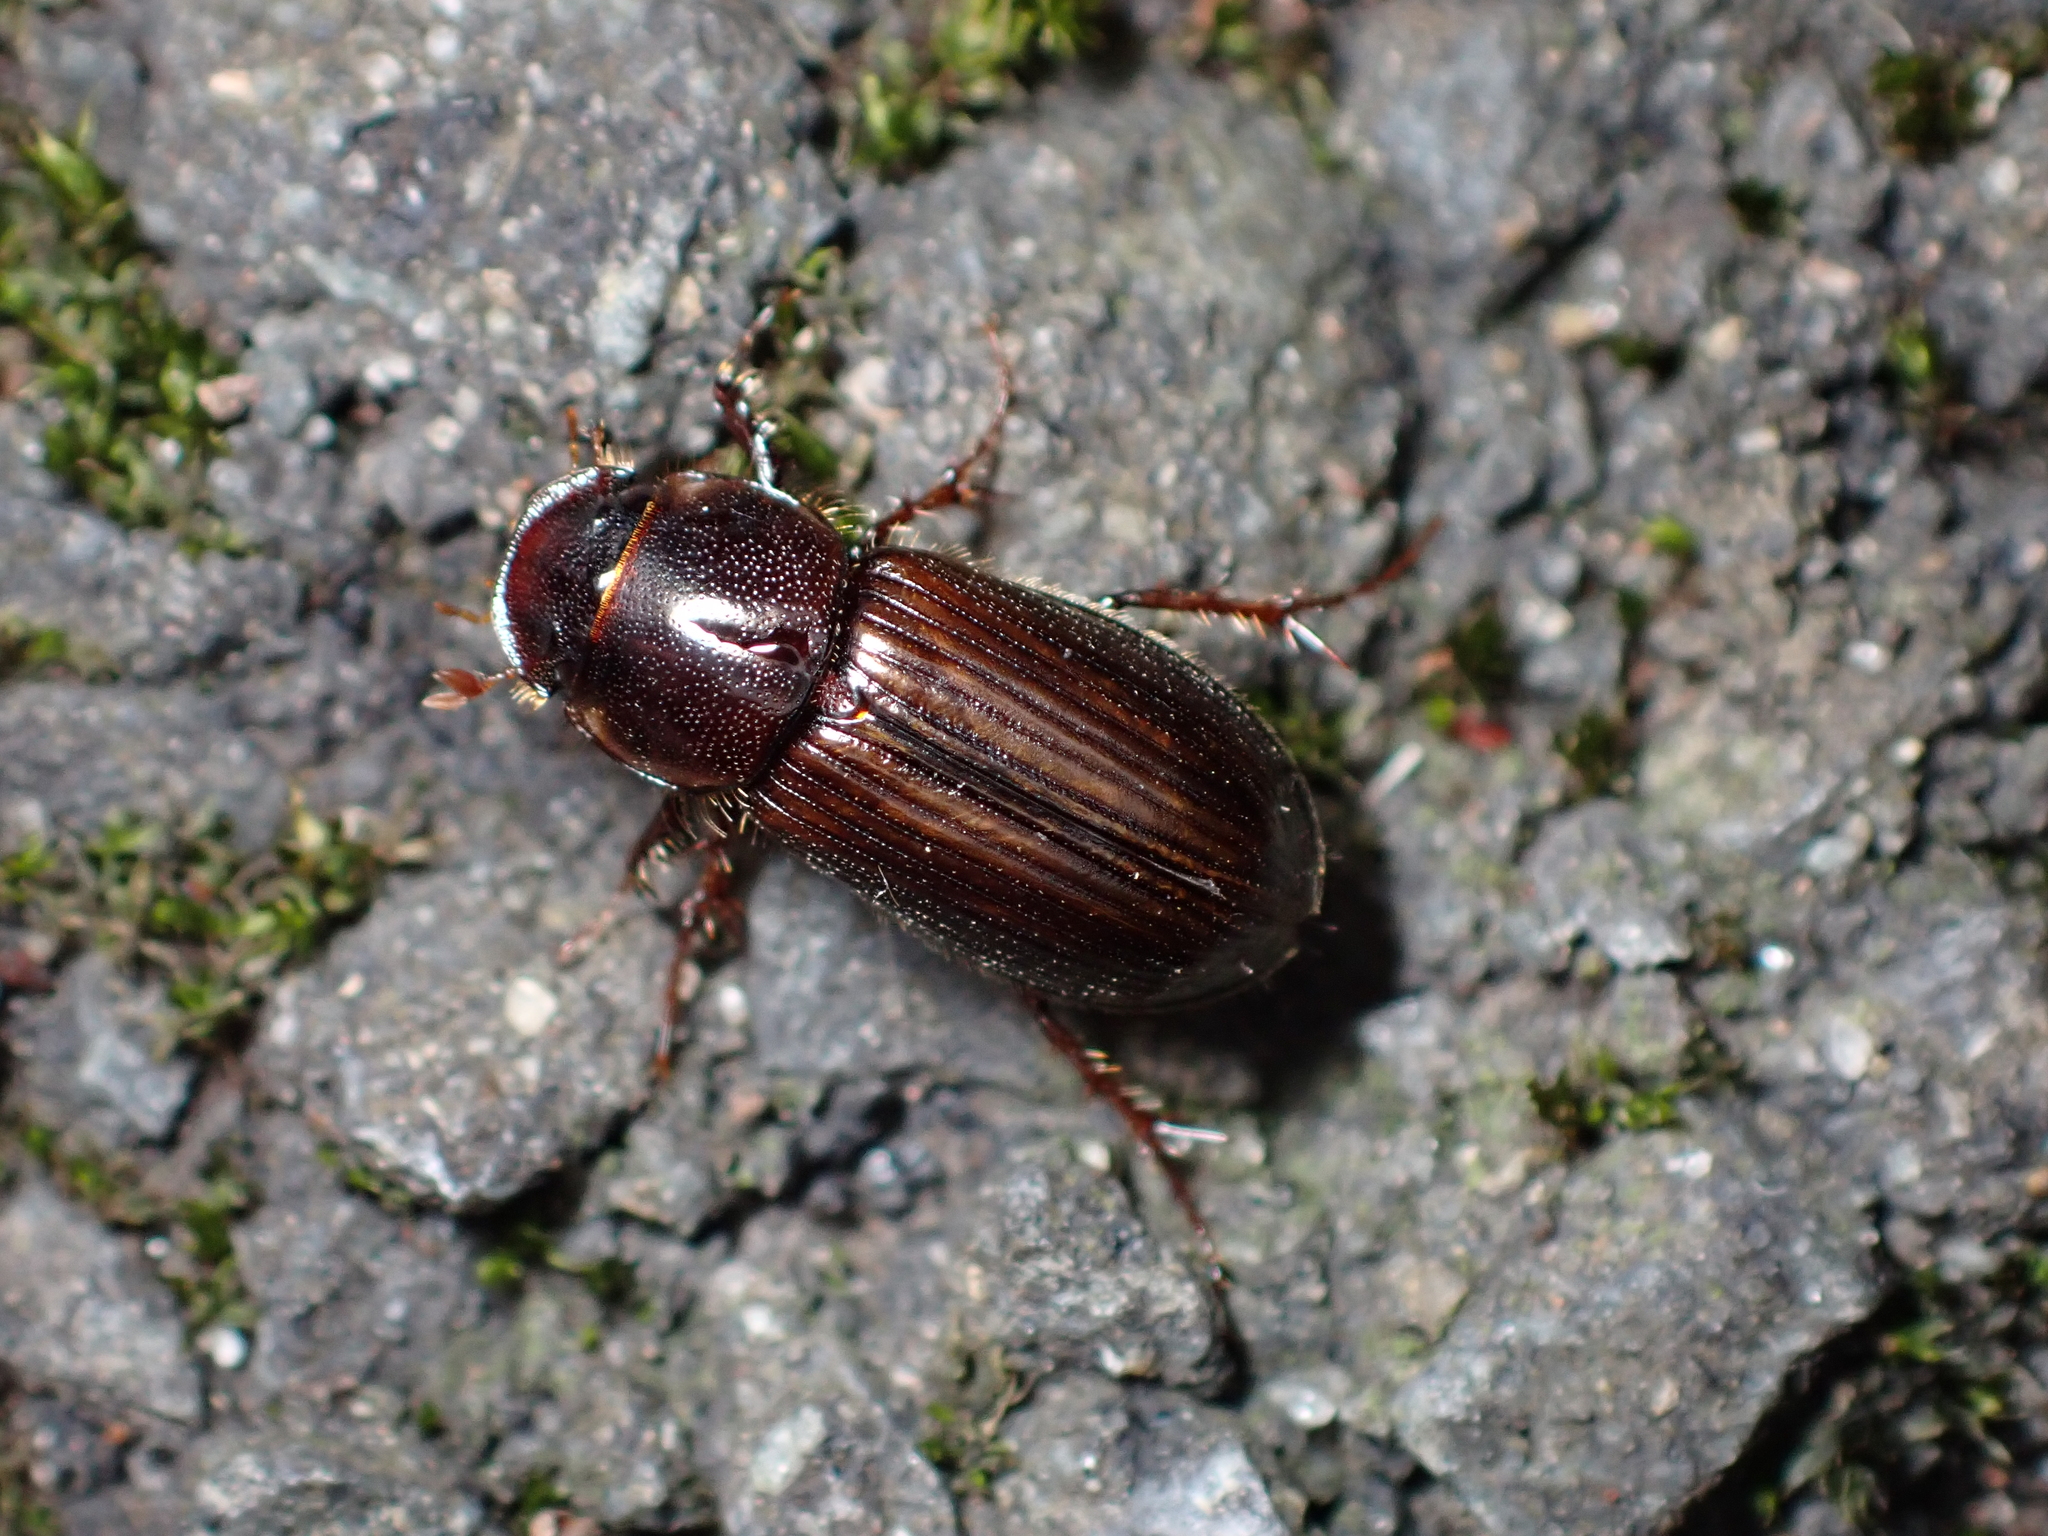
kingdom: Animalia
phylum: Arthropoda
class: Insecta
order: Coleoptera
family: Scarabaeidae
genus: Acrossidius
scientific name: Acrossidius tasmaniae
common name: Black-headed pasture cockchafer
